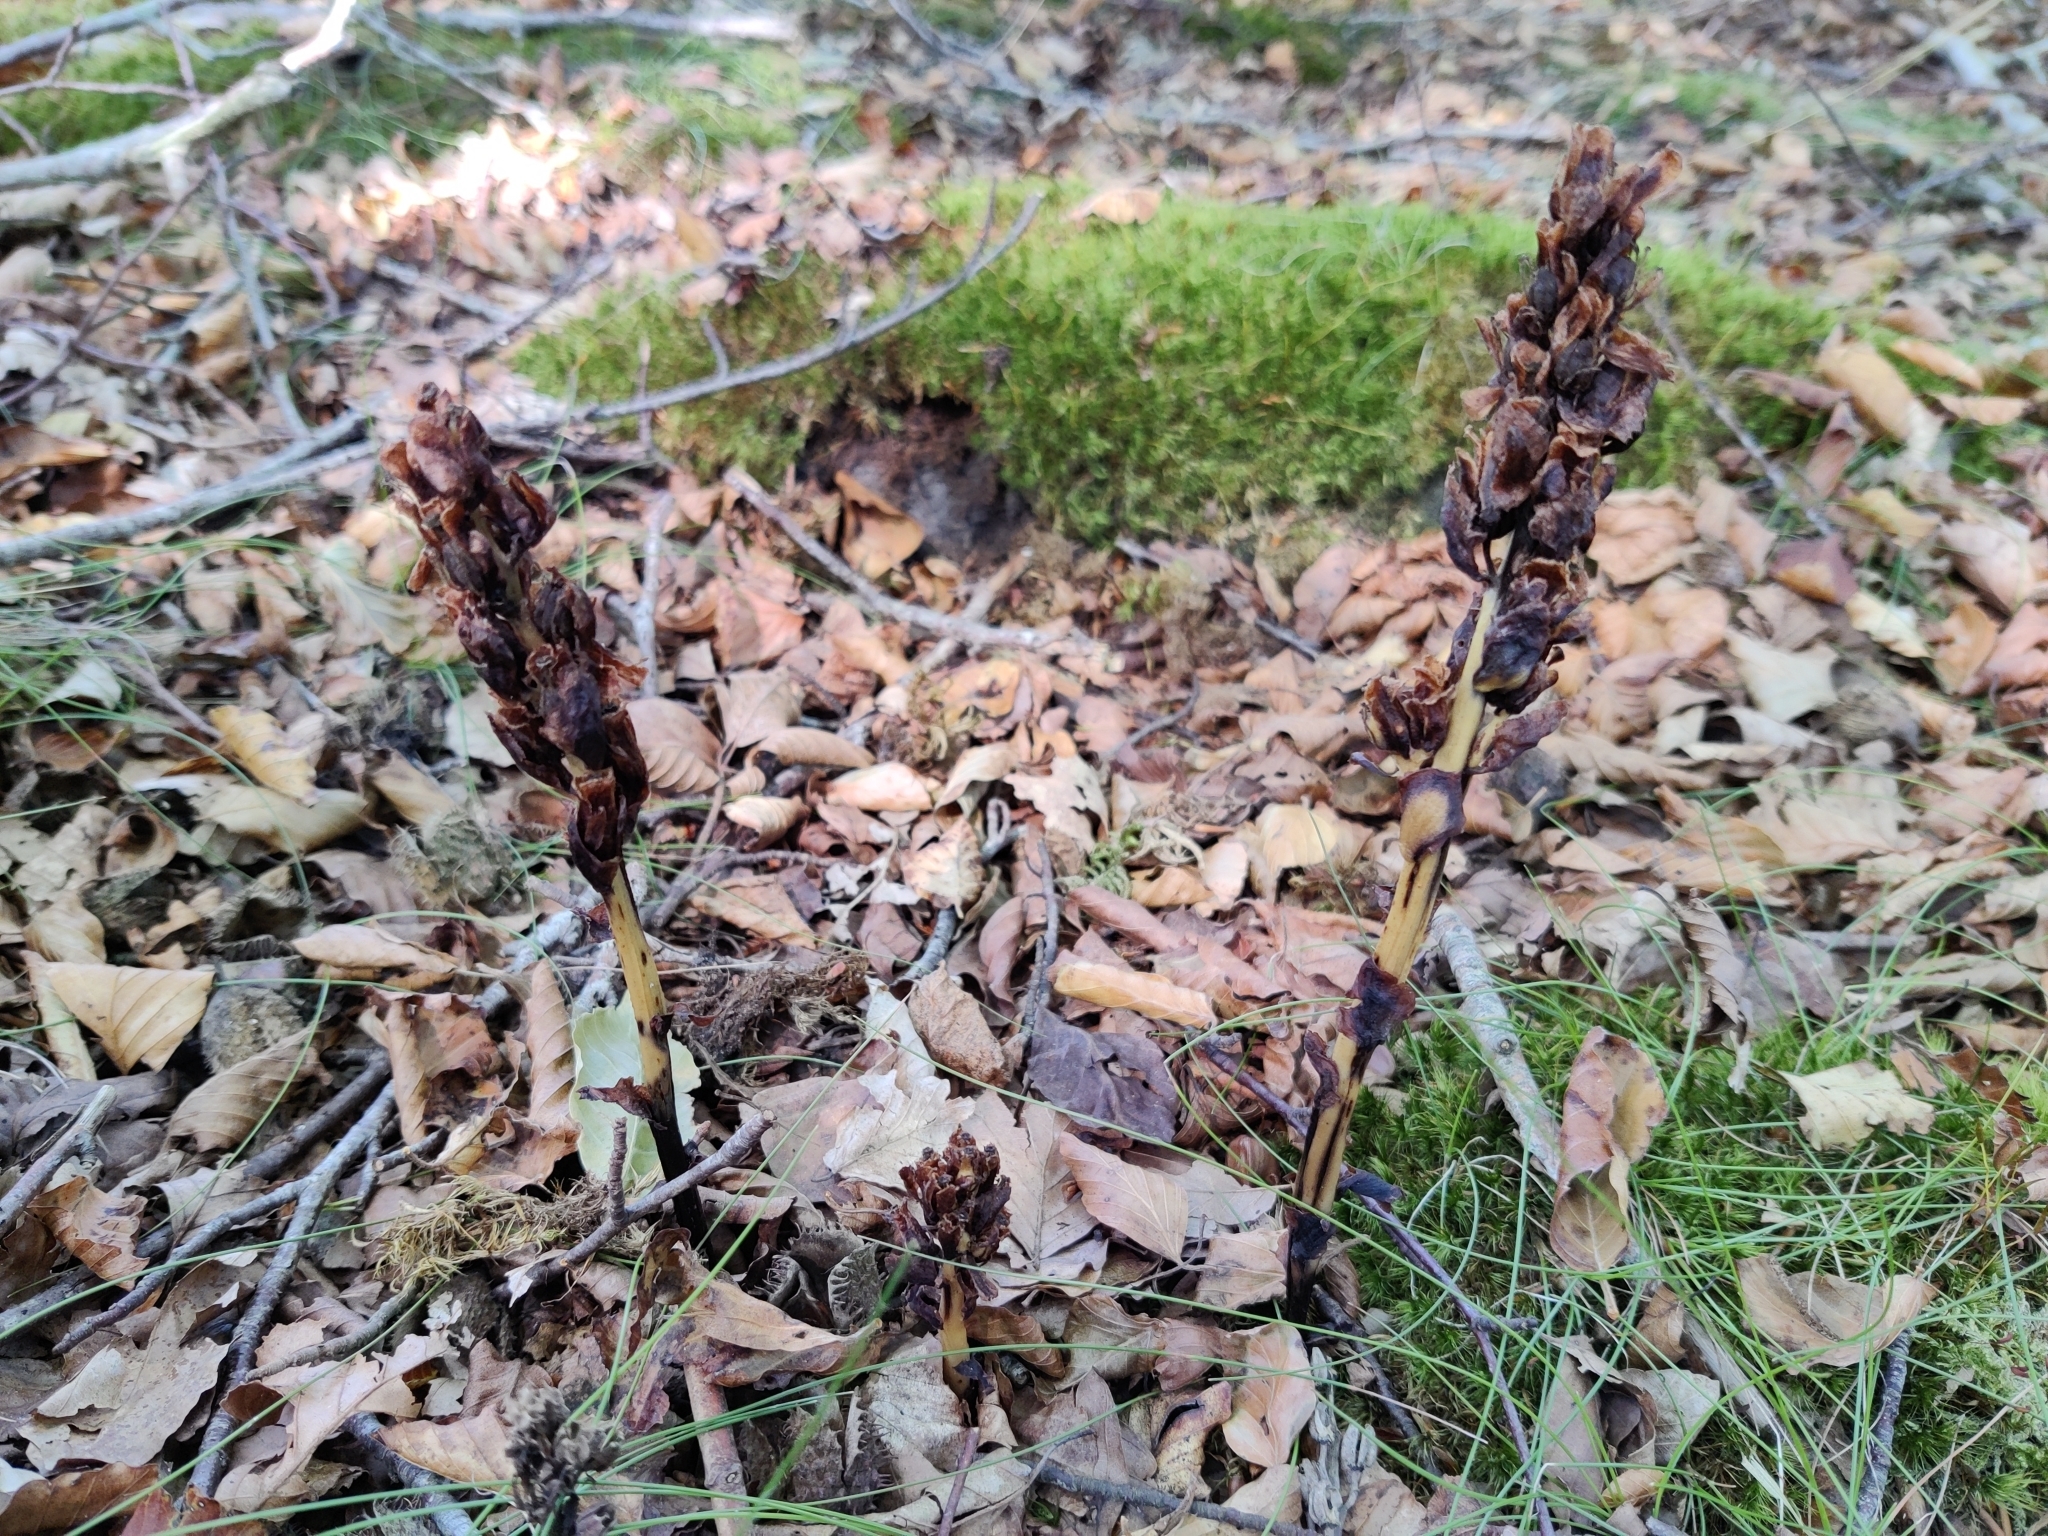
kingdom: Plantae
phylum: Tracheophyta
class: Magnoliopsida
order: Ericales
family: Ericaceae
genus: Hypopitys
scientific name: Hypopitys monotropa
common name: Yellow bird's-nest
